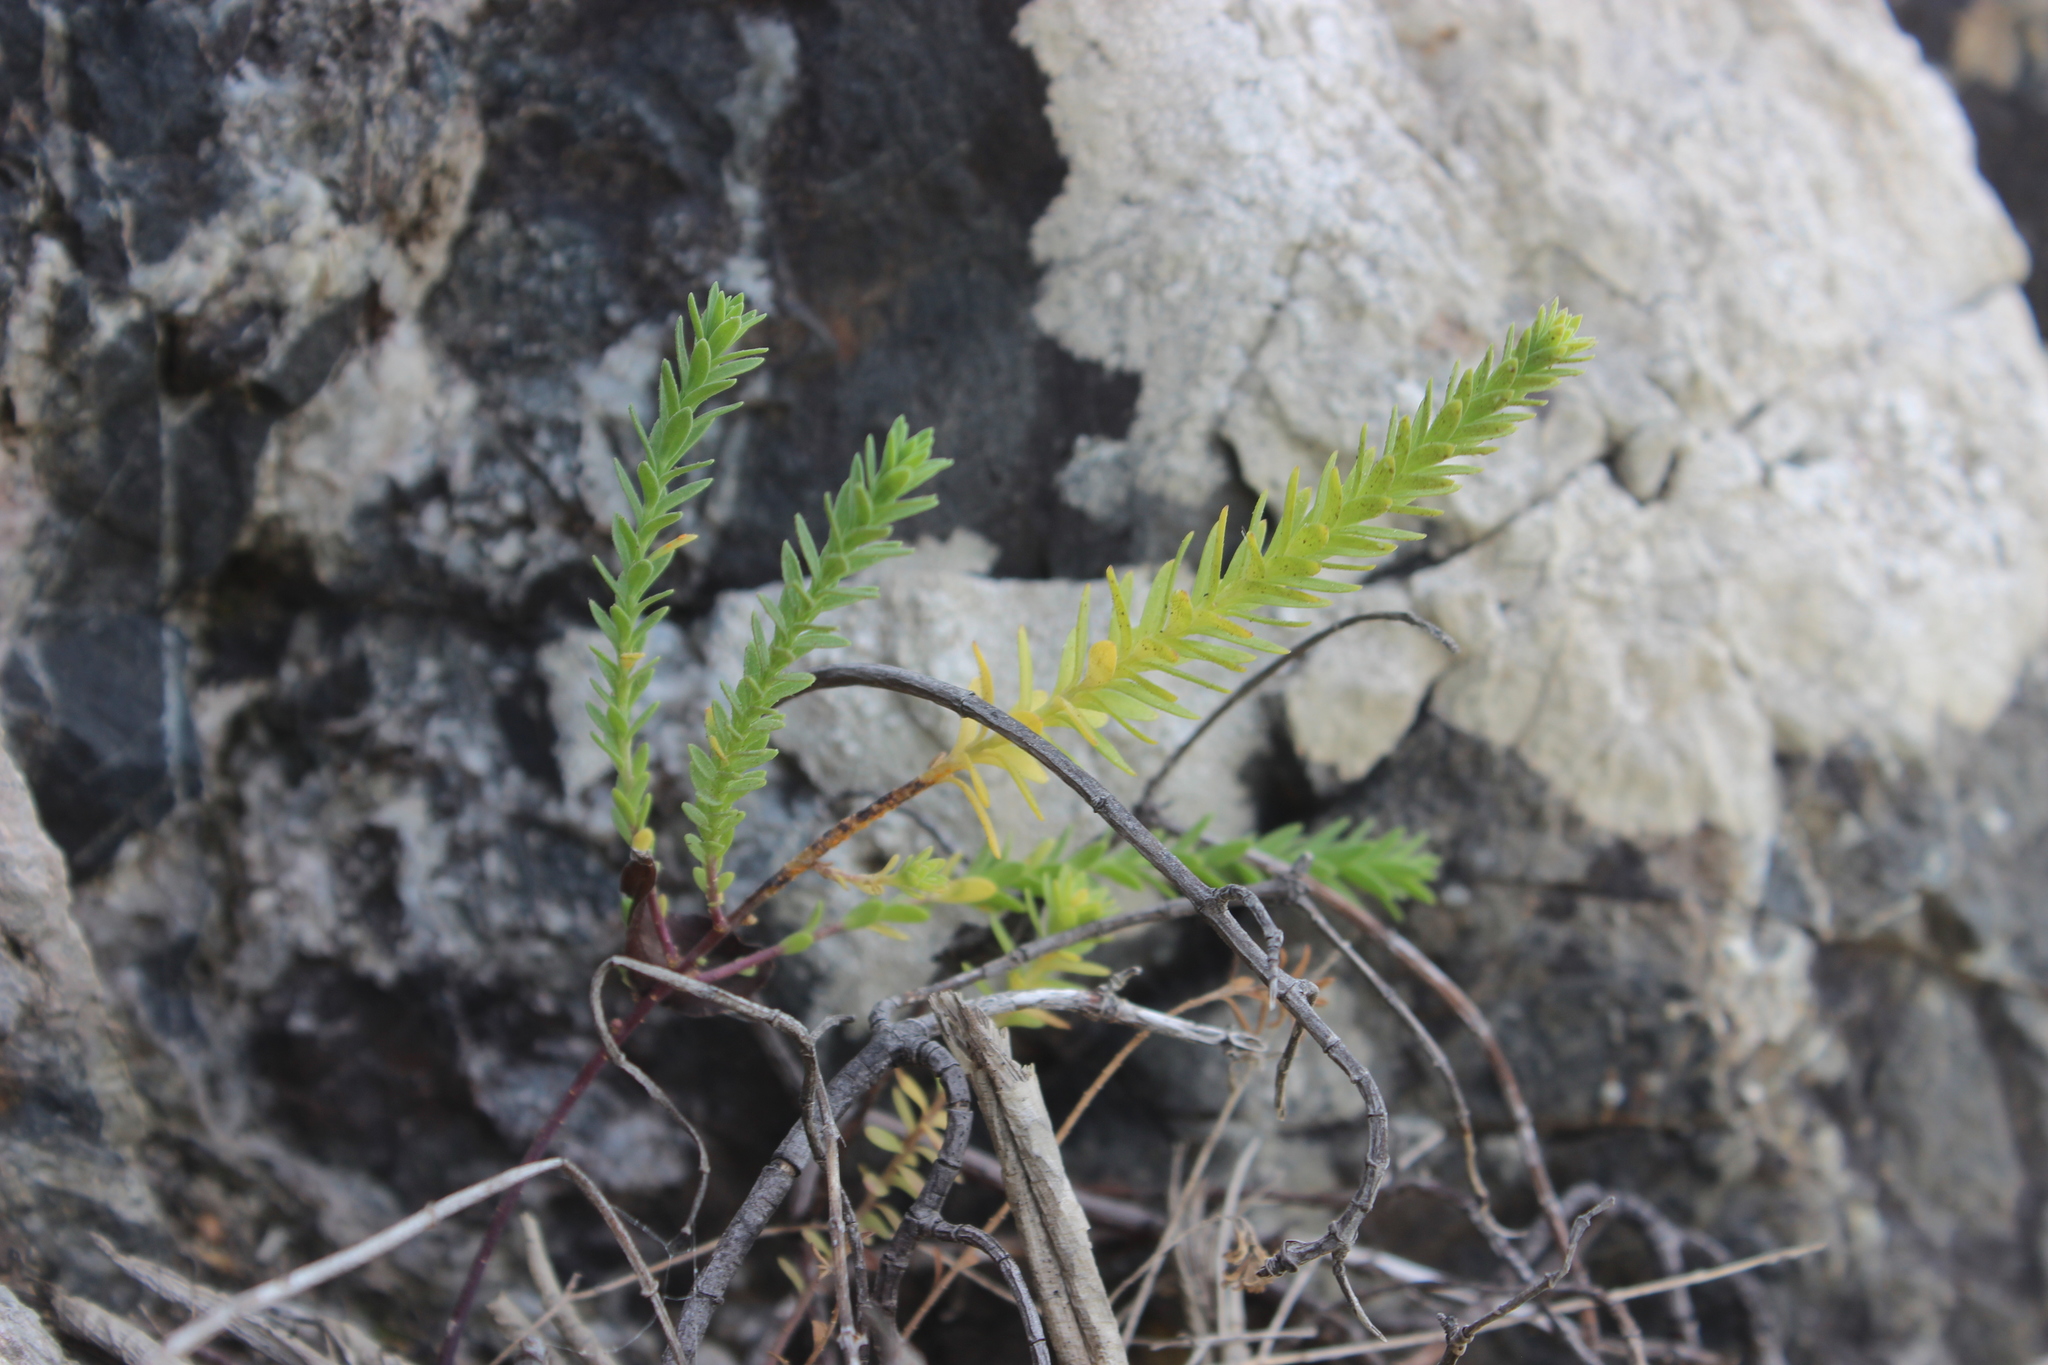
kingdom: Plantae
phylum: Tracheophyta
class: Magnoliopsida
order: Malpighiales
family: Linaceae
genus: Linum
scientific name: Linum monogynum
